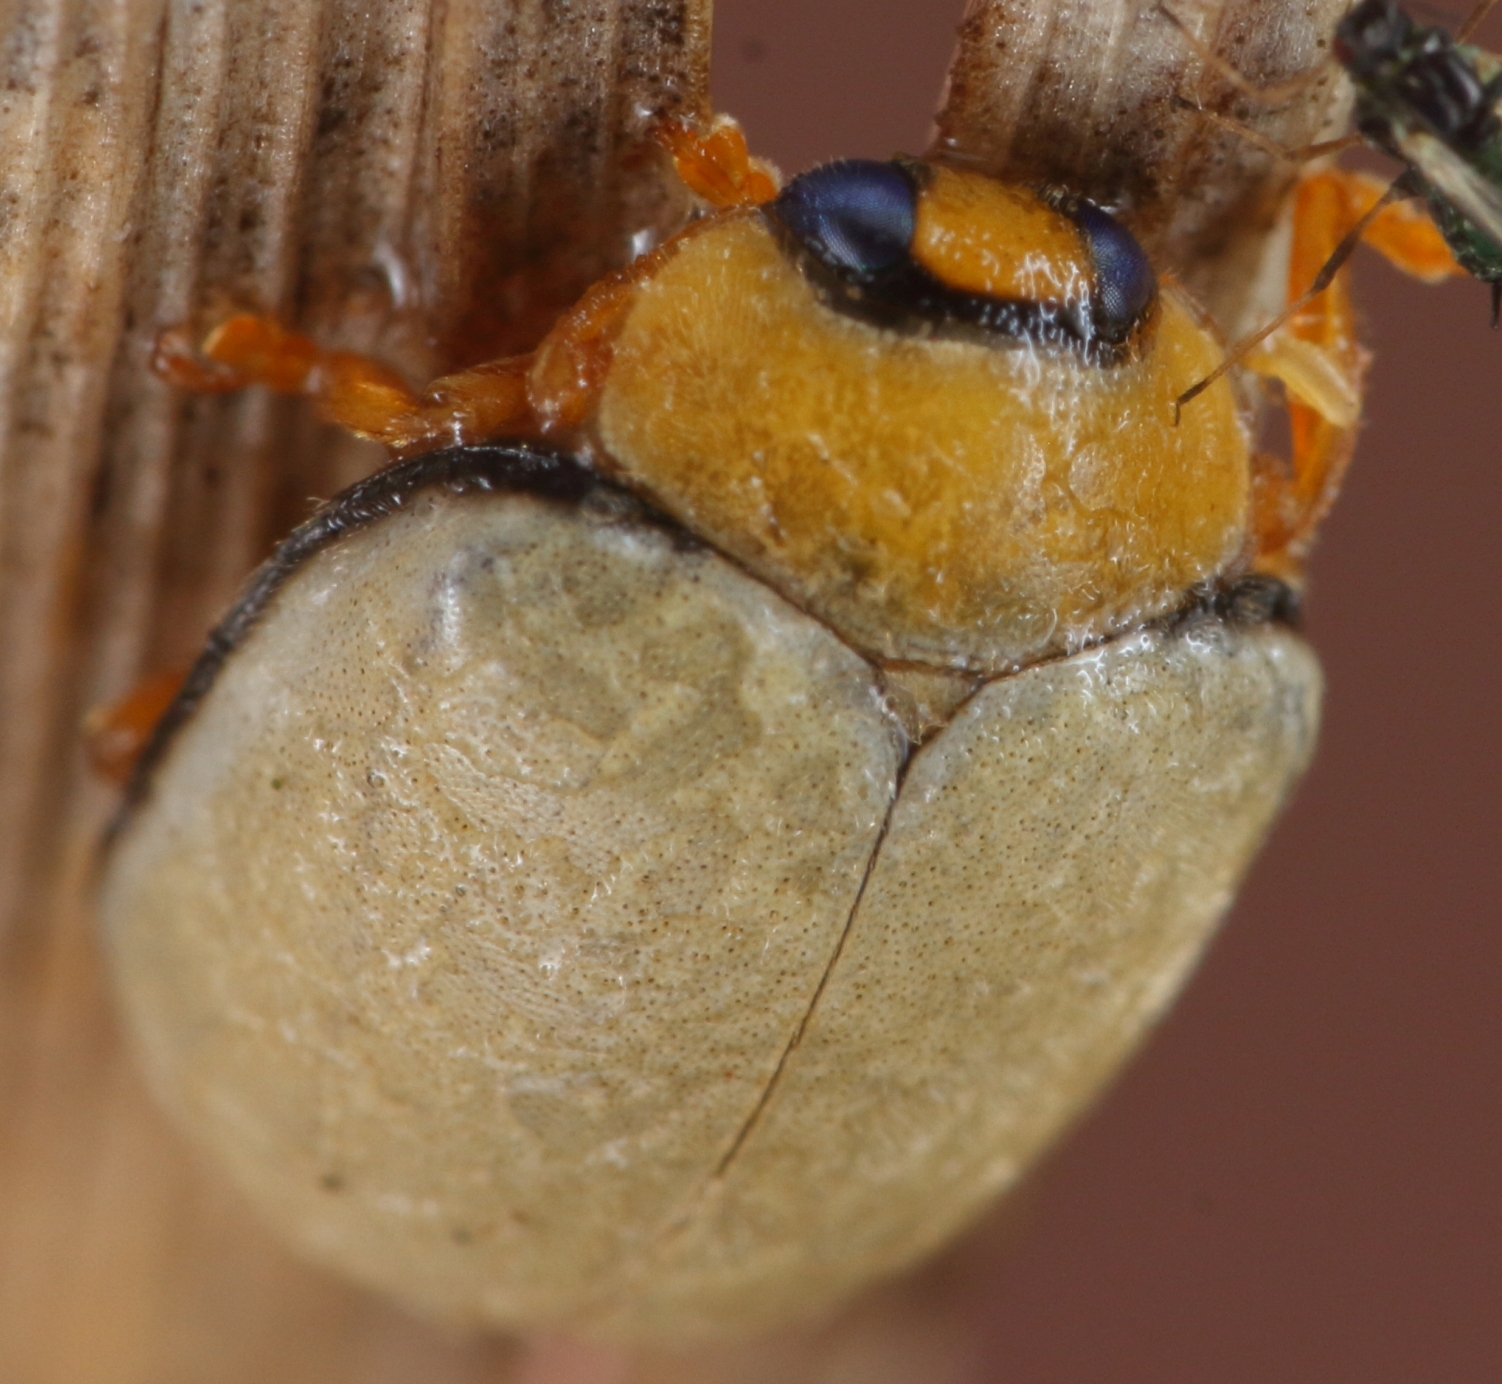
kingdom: Animalia
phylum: Arthropoda
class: Insecta
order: Coleoptera
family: Coccinellidae
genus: Ortalia
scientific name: Ortalia
